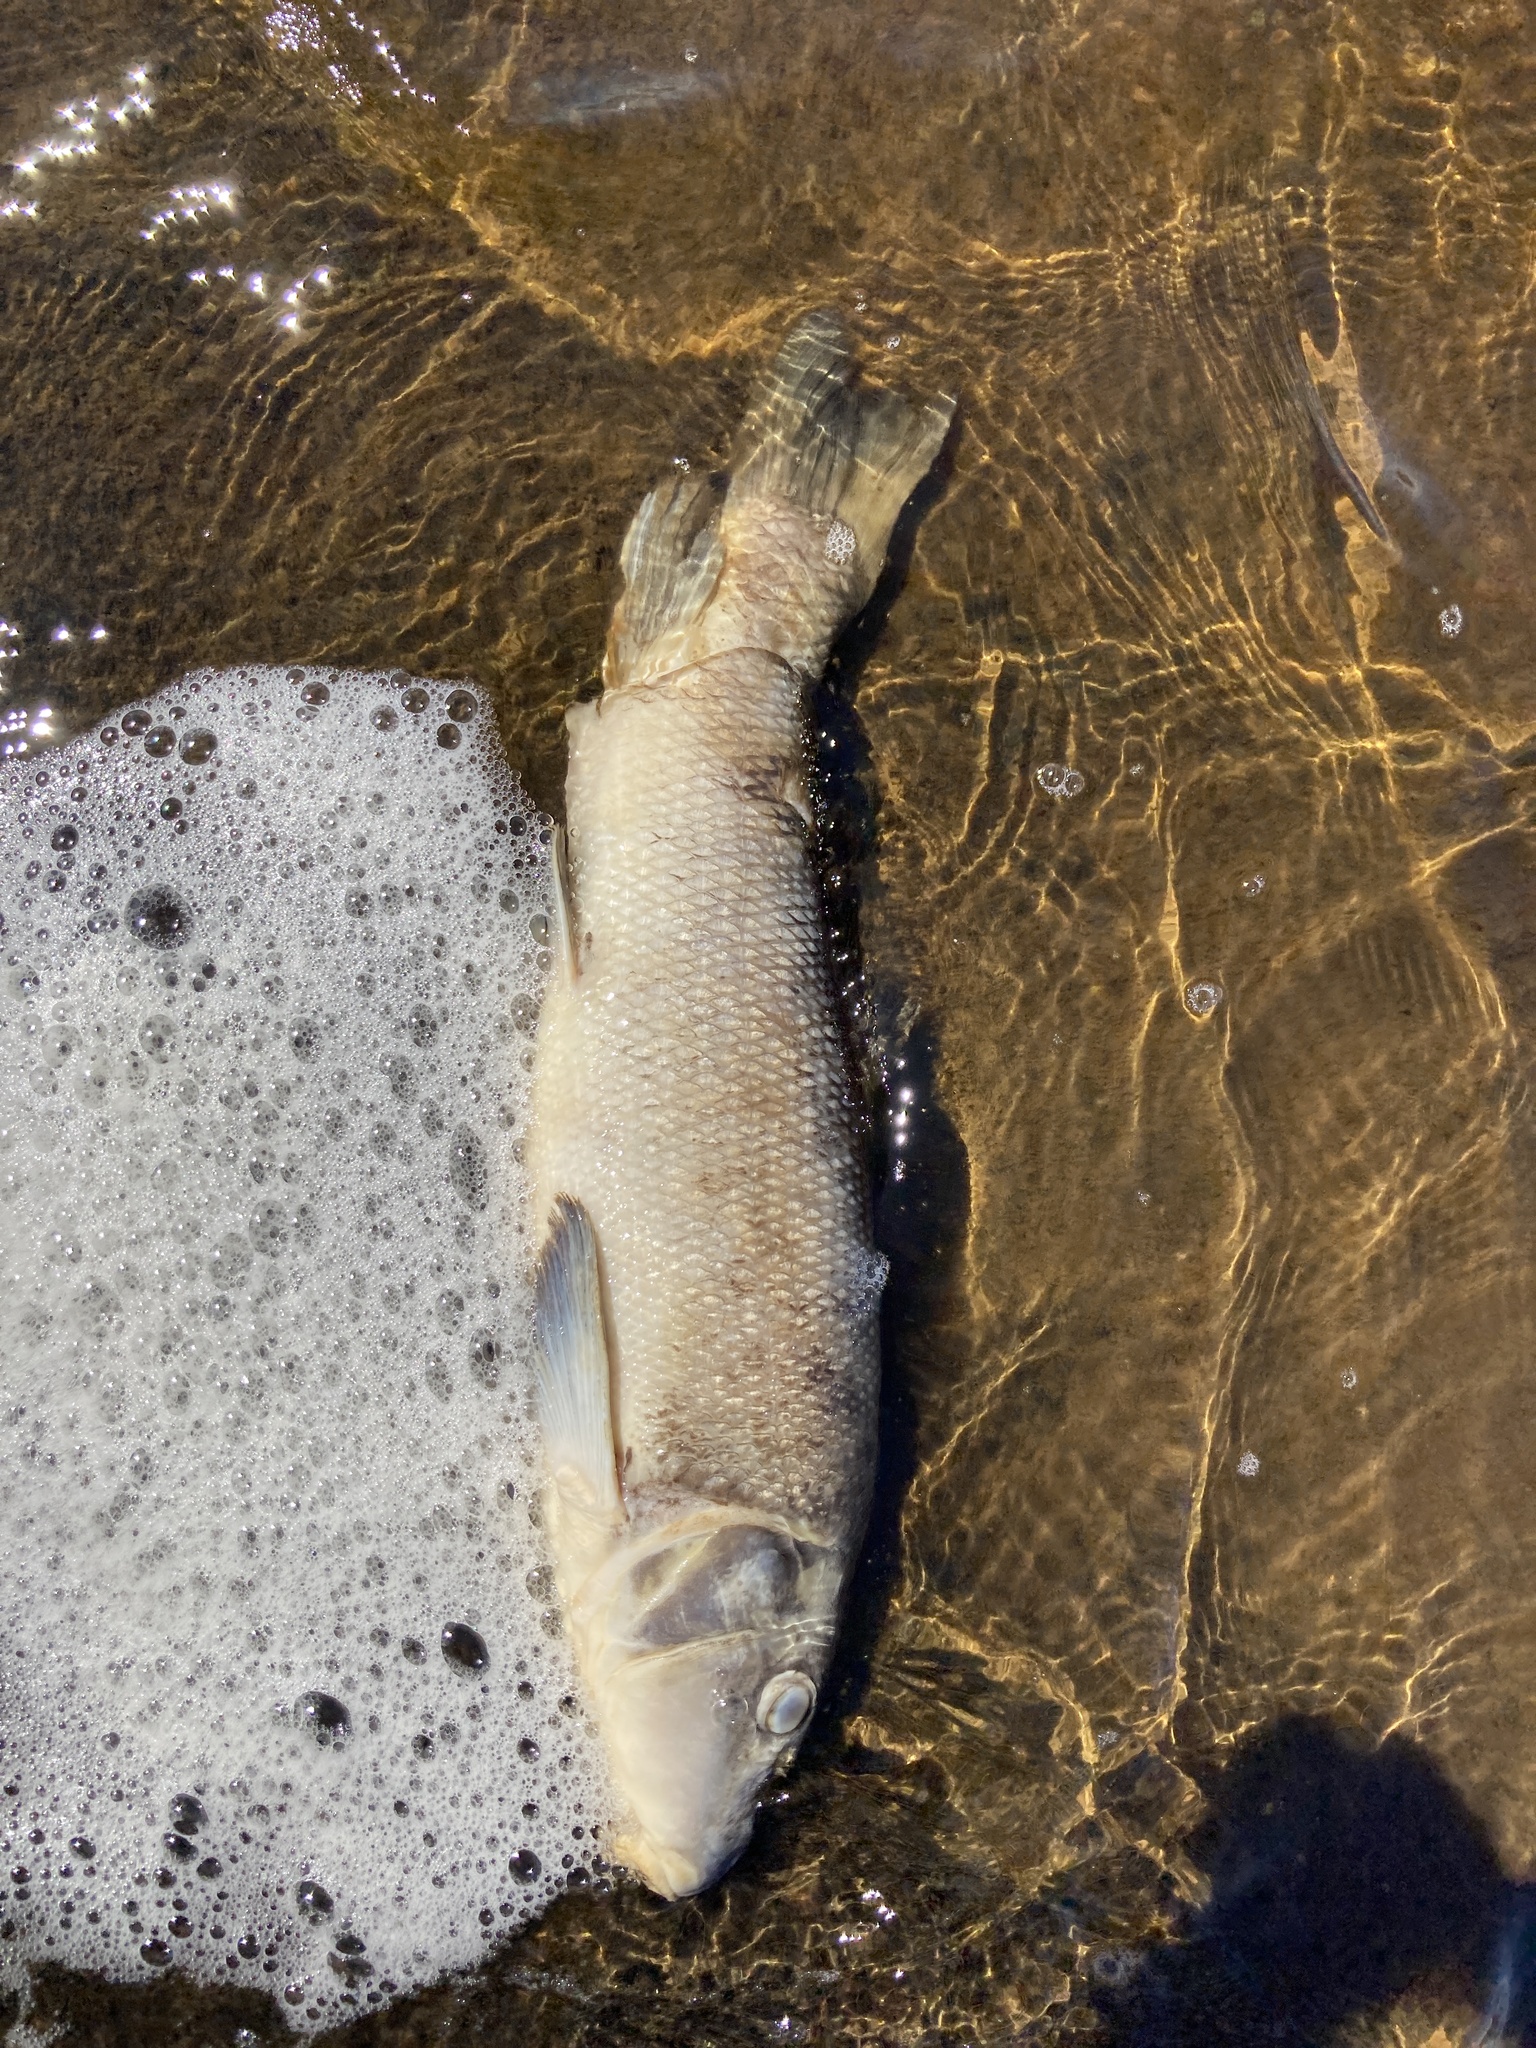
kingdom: Animalia
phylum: Chordata
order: Cypriniformes
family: Catostomidae
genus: Catostomus
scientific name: Catostomus commersonii
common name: White sucker
